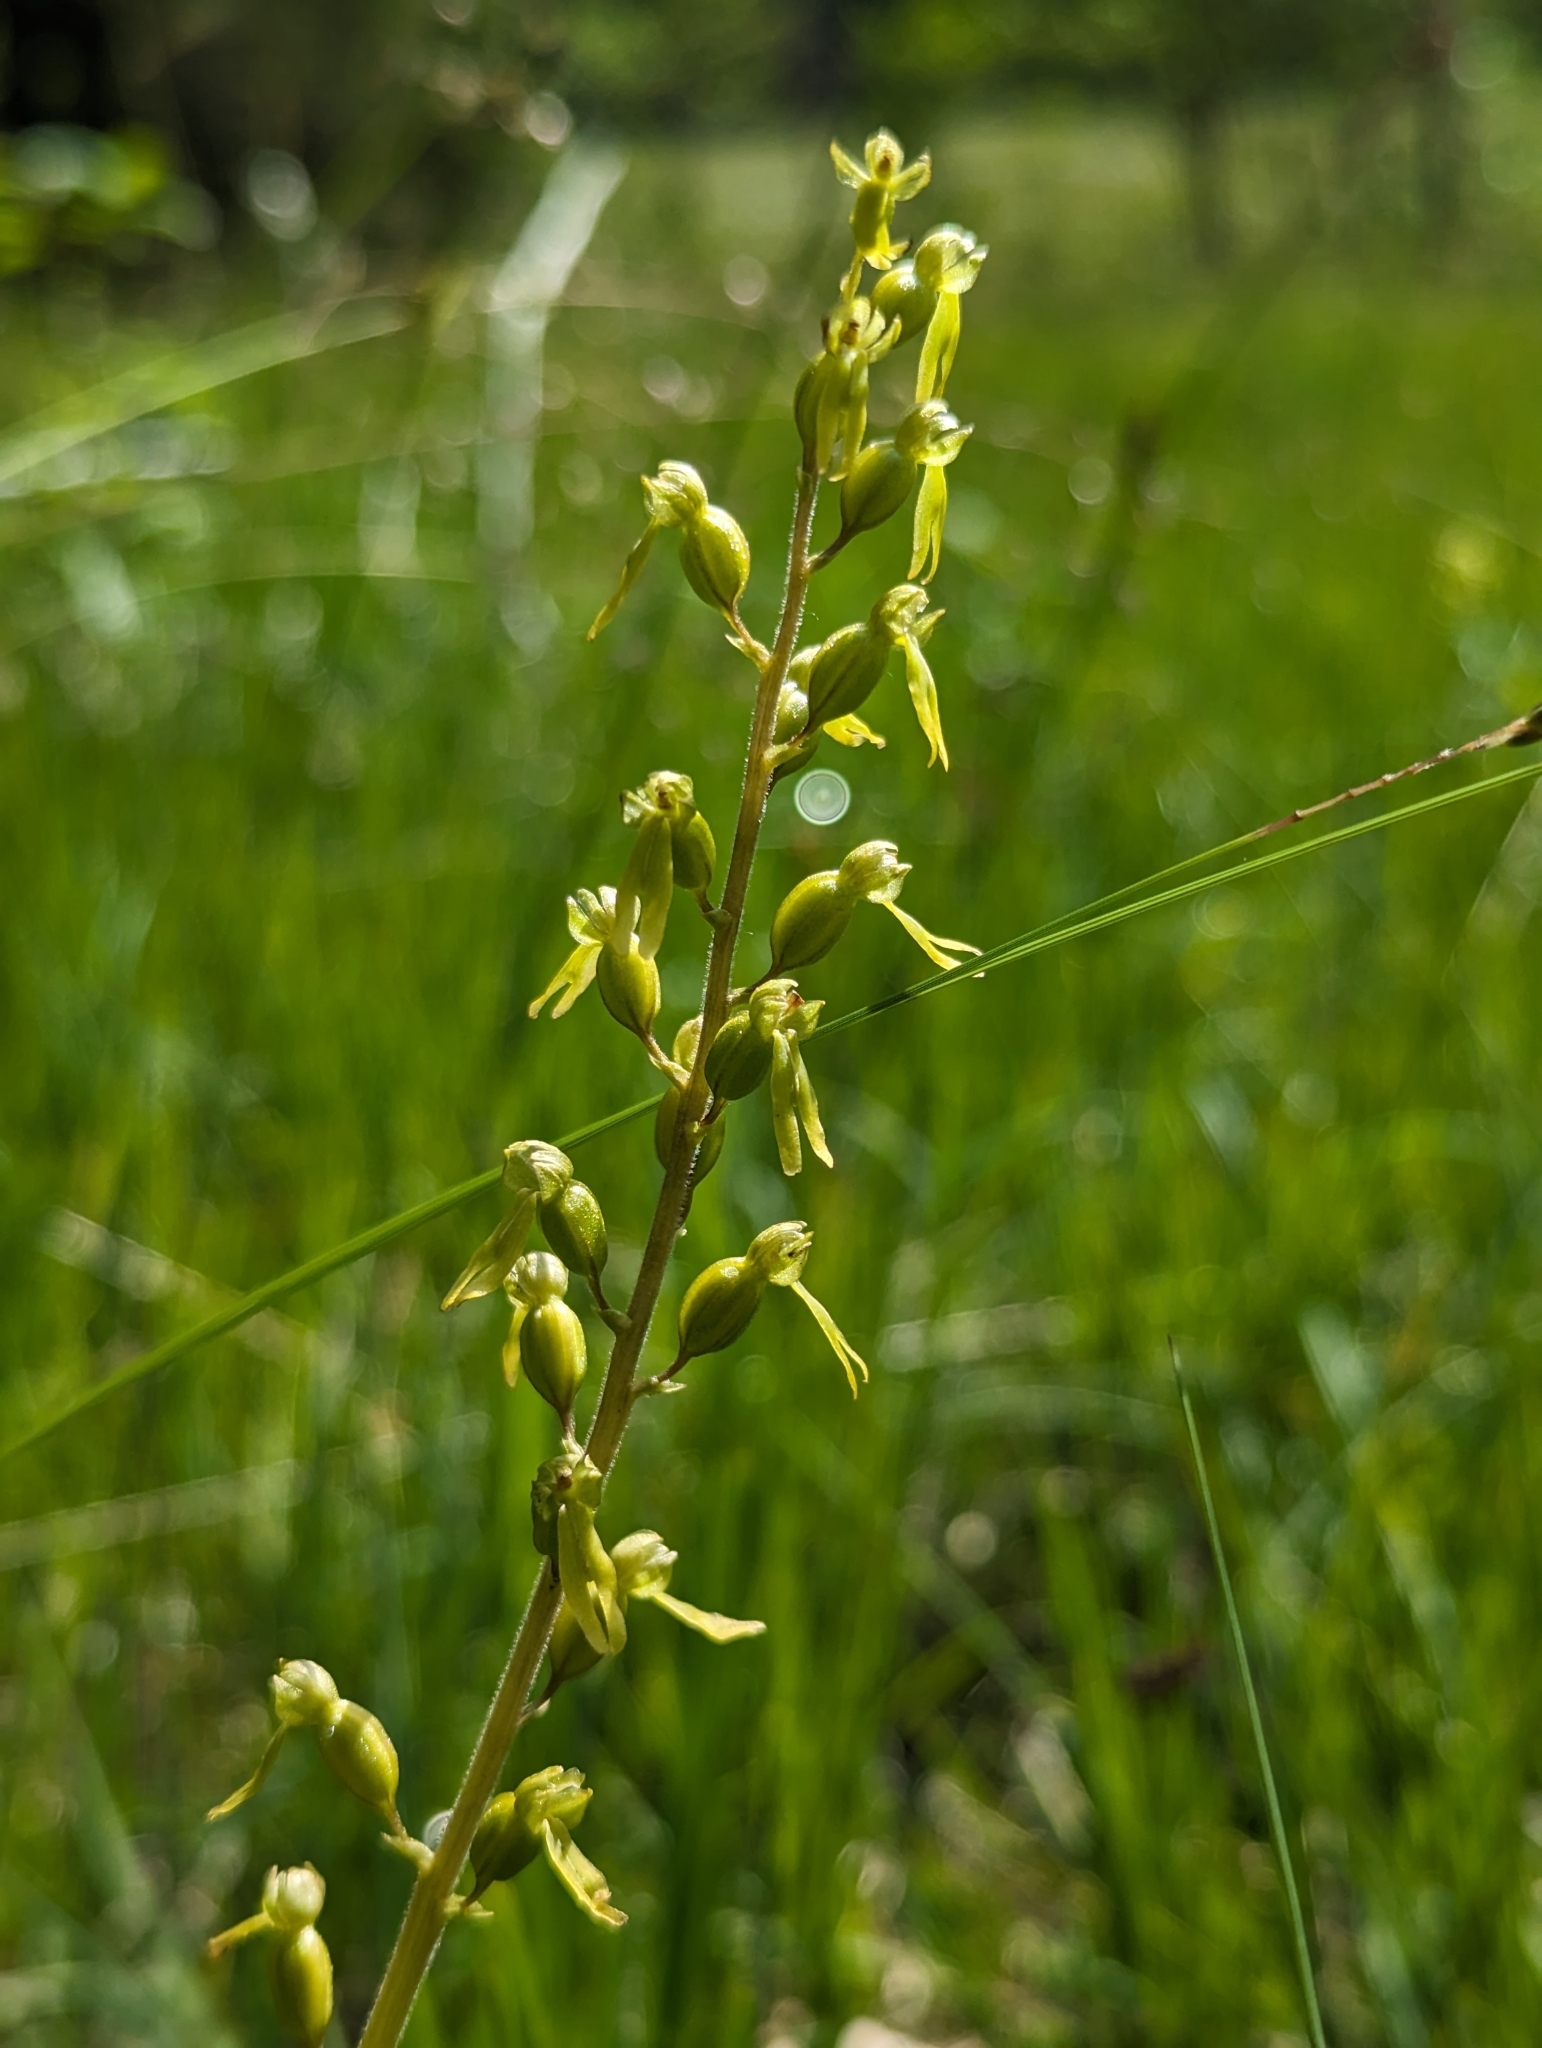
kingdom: Plantae
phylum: Tracheophyta
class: Liliopsida
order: Asparagales
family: Orchidaceae
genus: Neottia
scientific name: Neottia ovata
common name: Common twayblade
